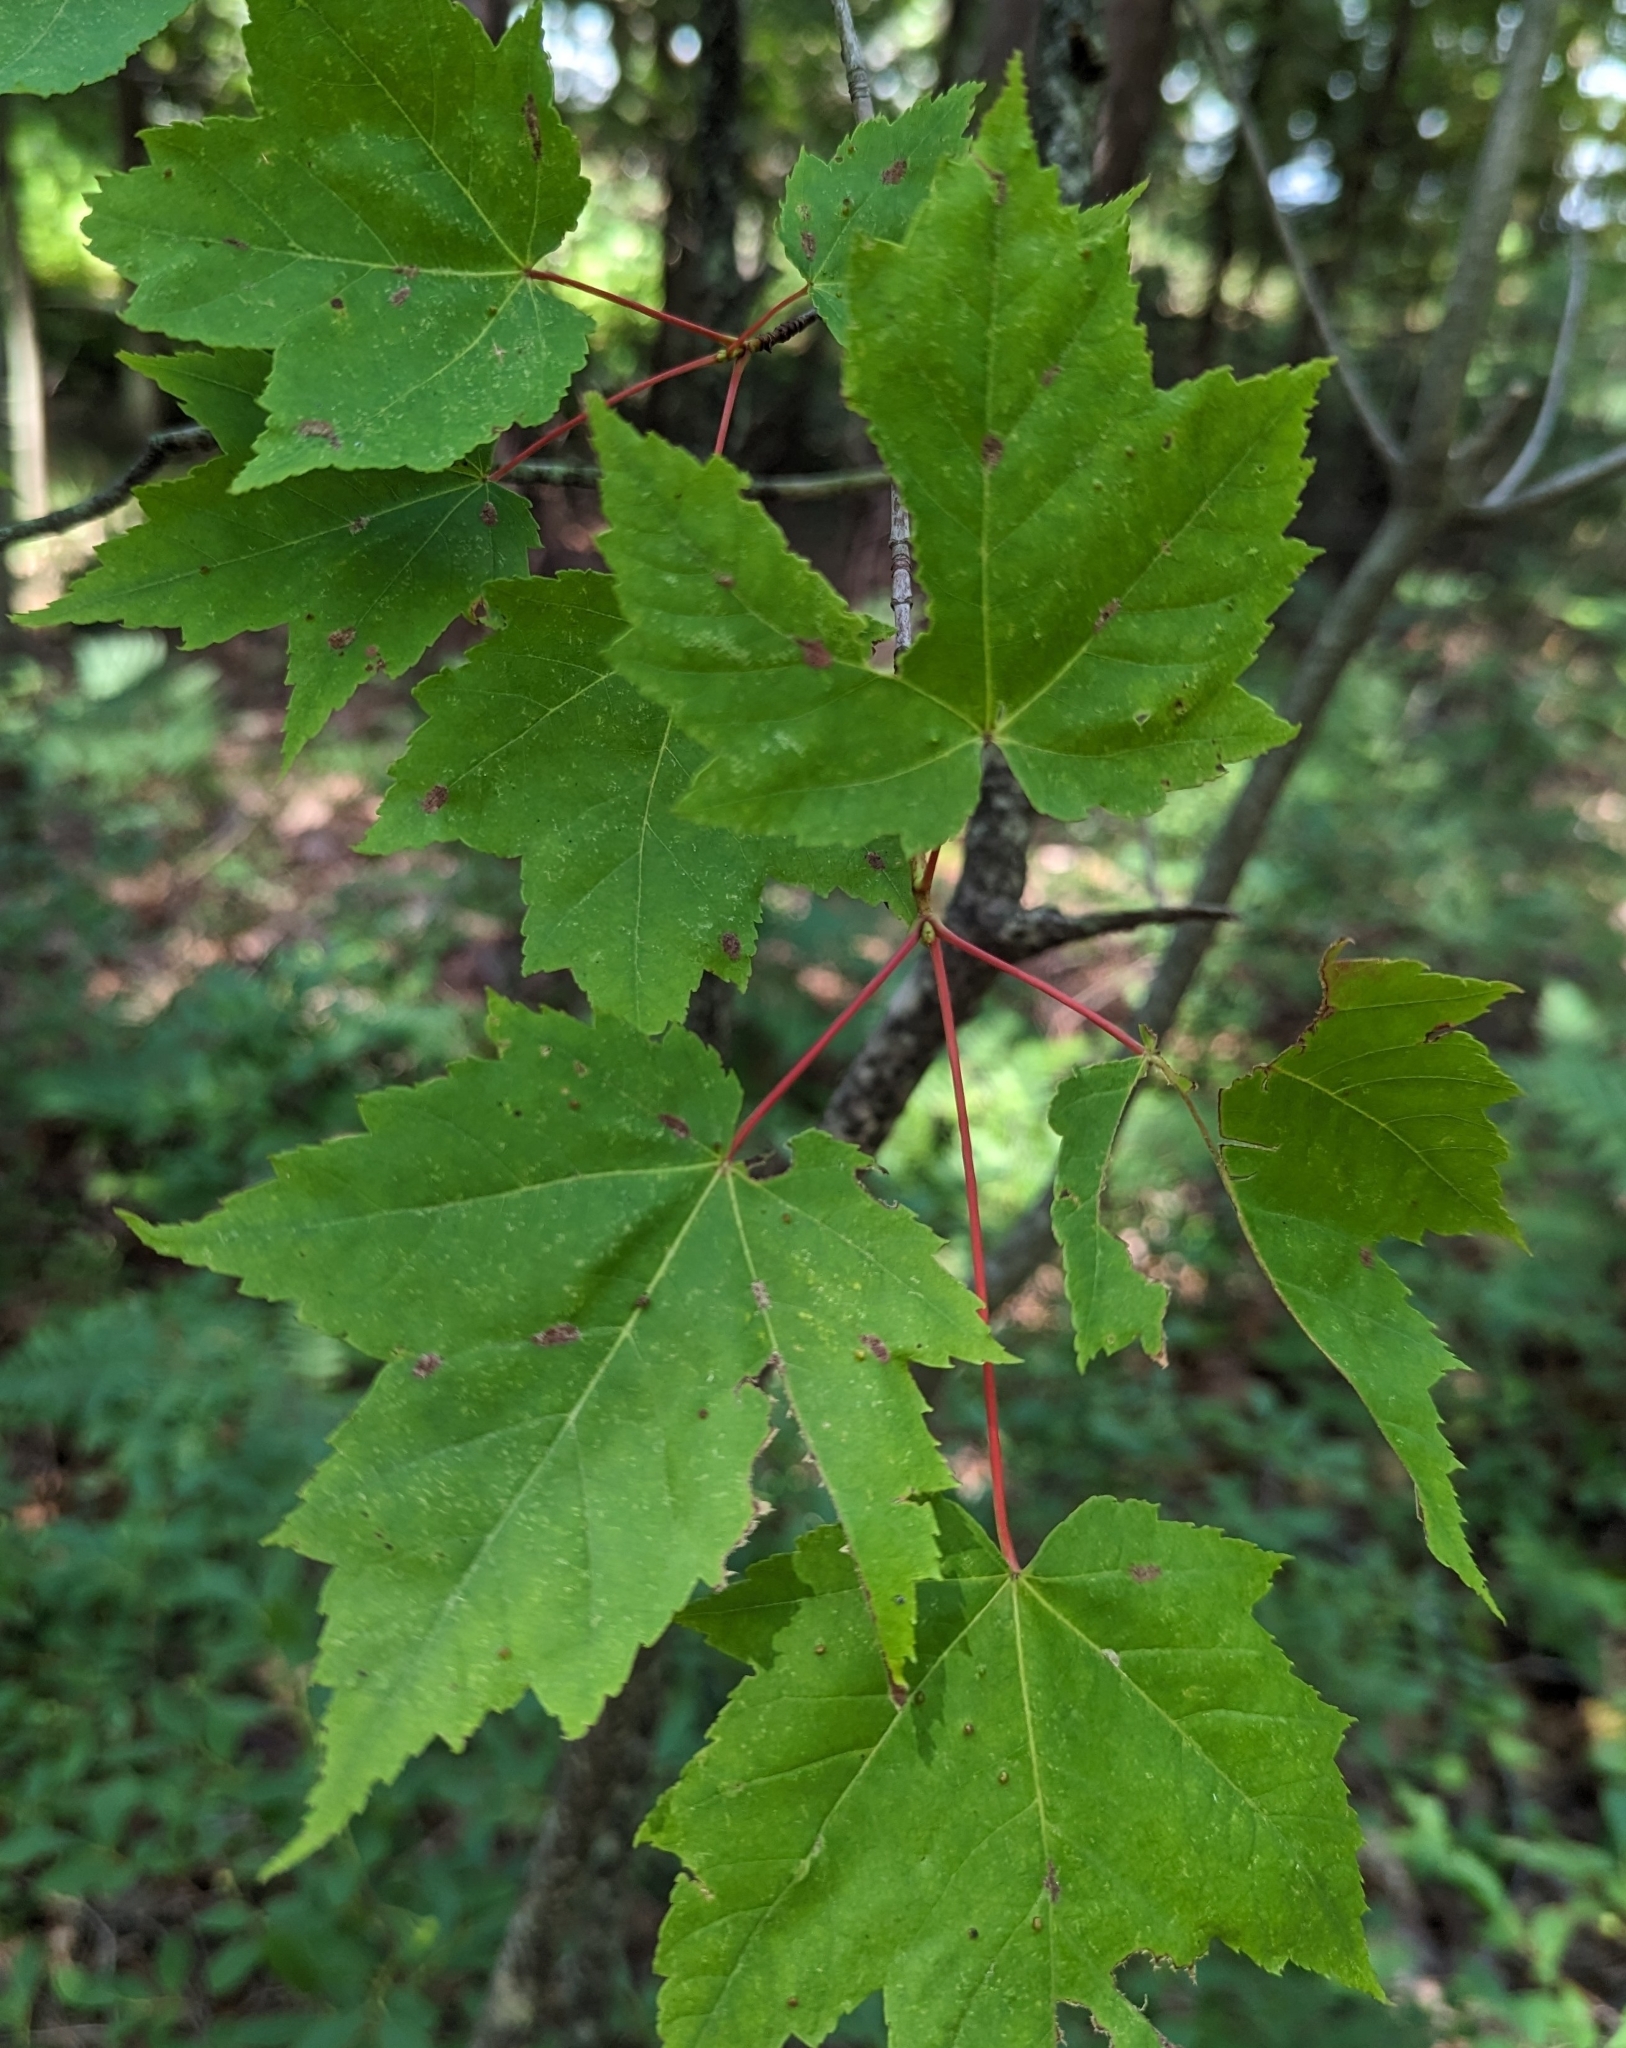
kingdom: Plantae
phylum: Tracheophyta
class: Magnoliopsida
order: Sapindales
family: Sapindaceae
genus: Acer
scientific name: Acer rubrum
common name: Red maple
